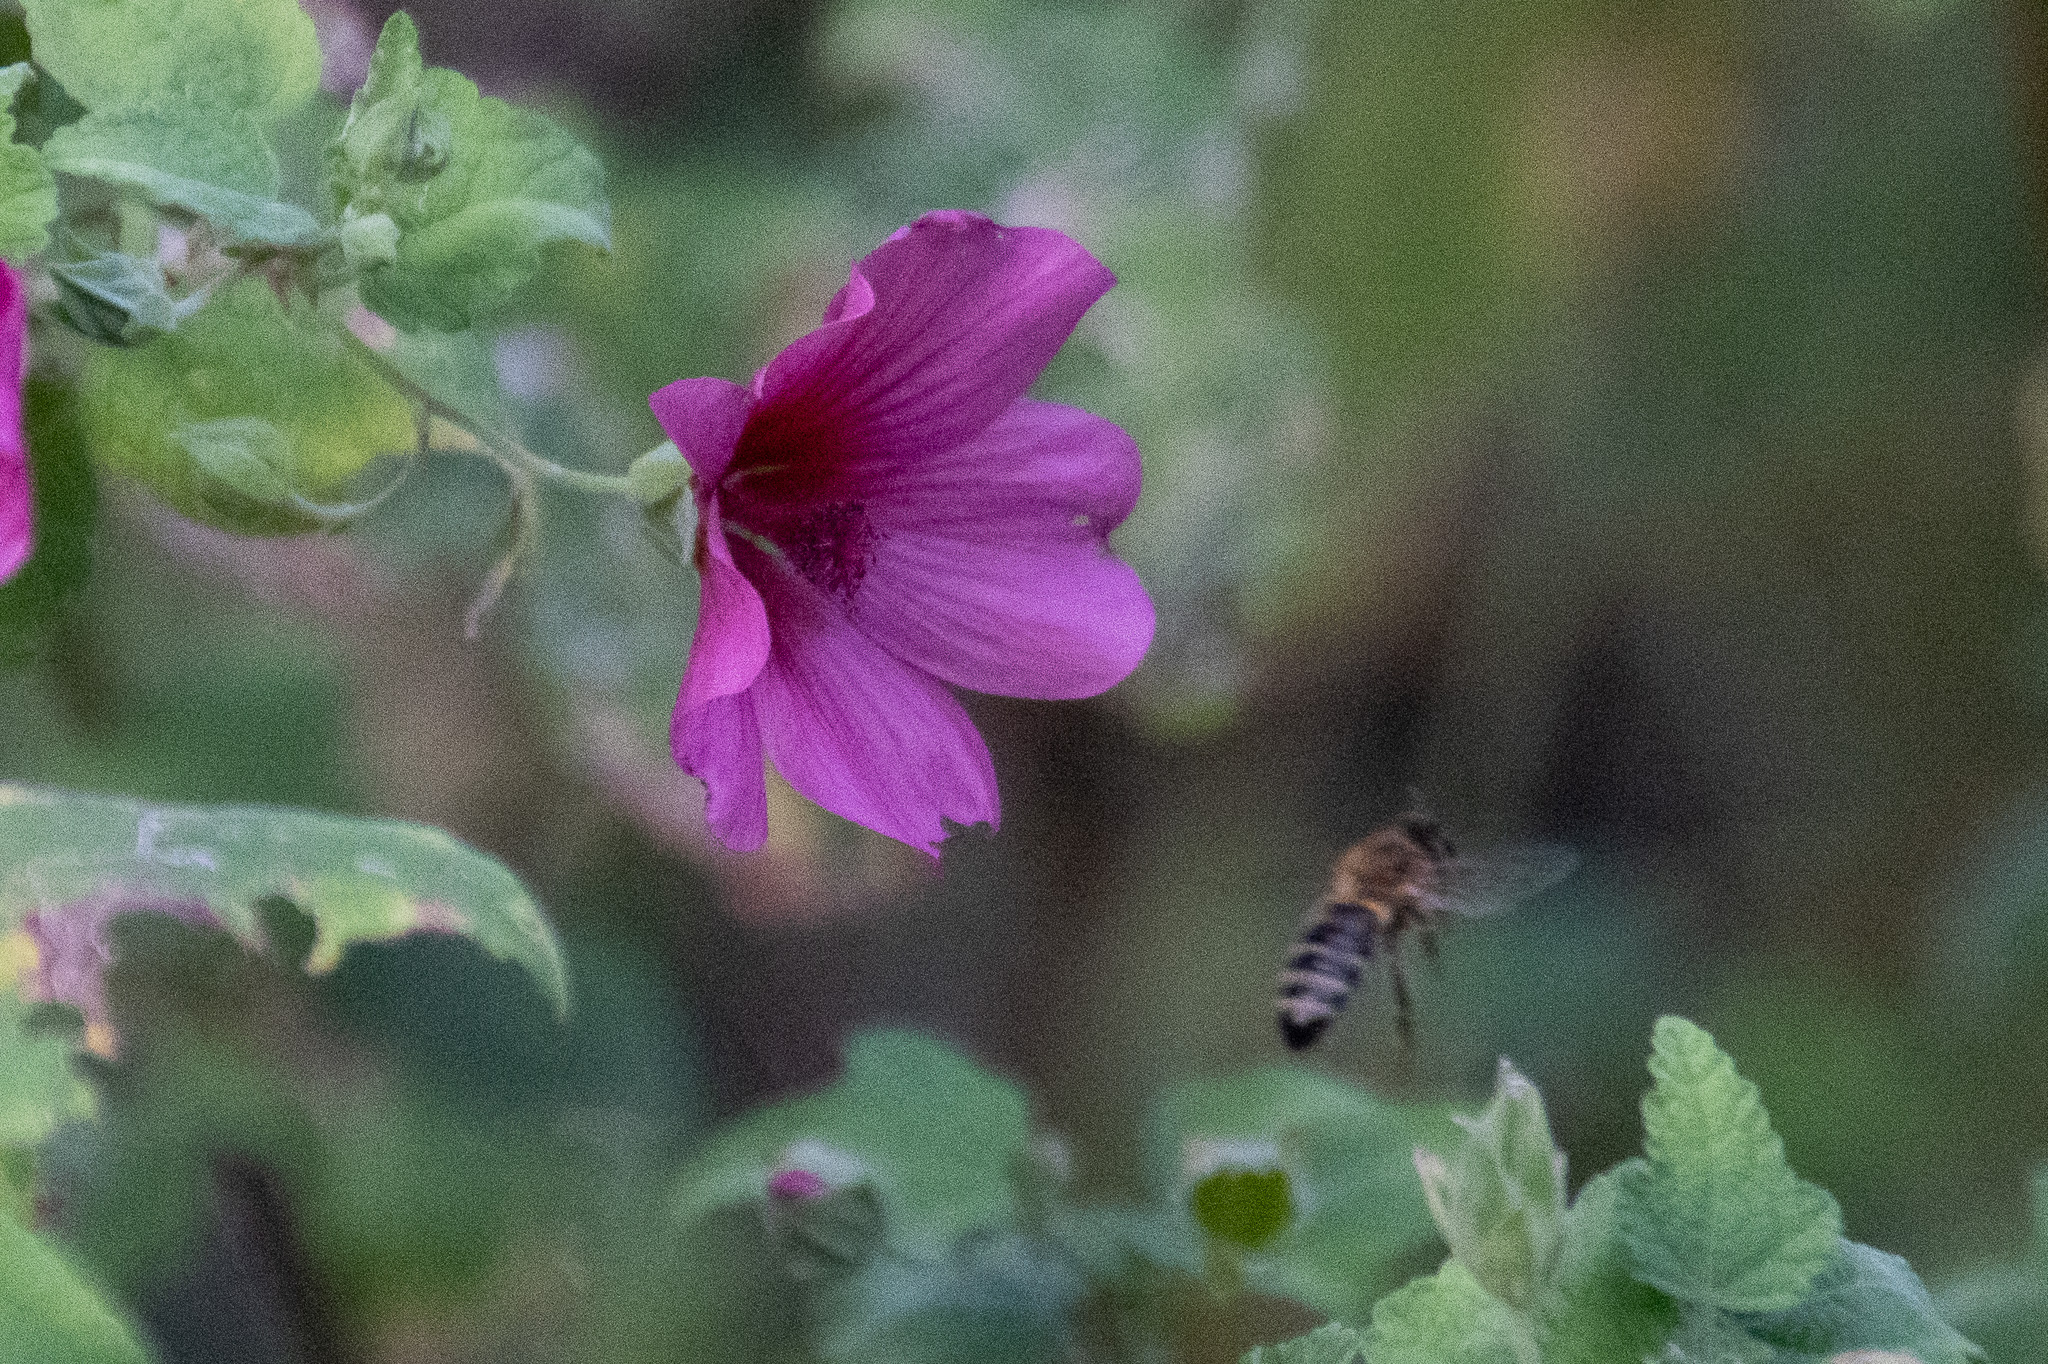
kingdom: Animalia
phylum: Arthropoda
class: Insecta
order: Hymenoptera
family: Apidae
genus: Apis
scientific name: Apis mellifera
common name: Honey bee
